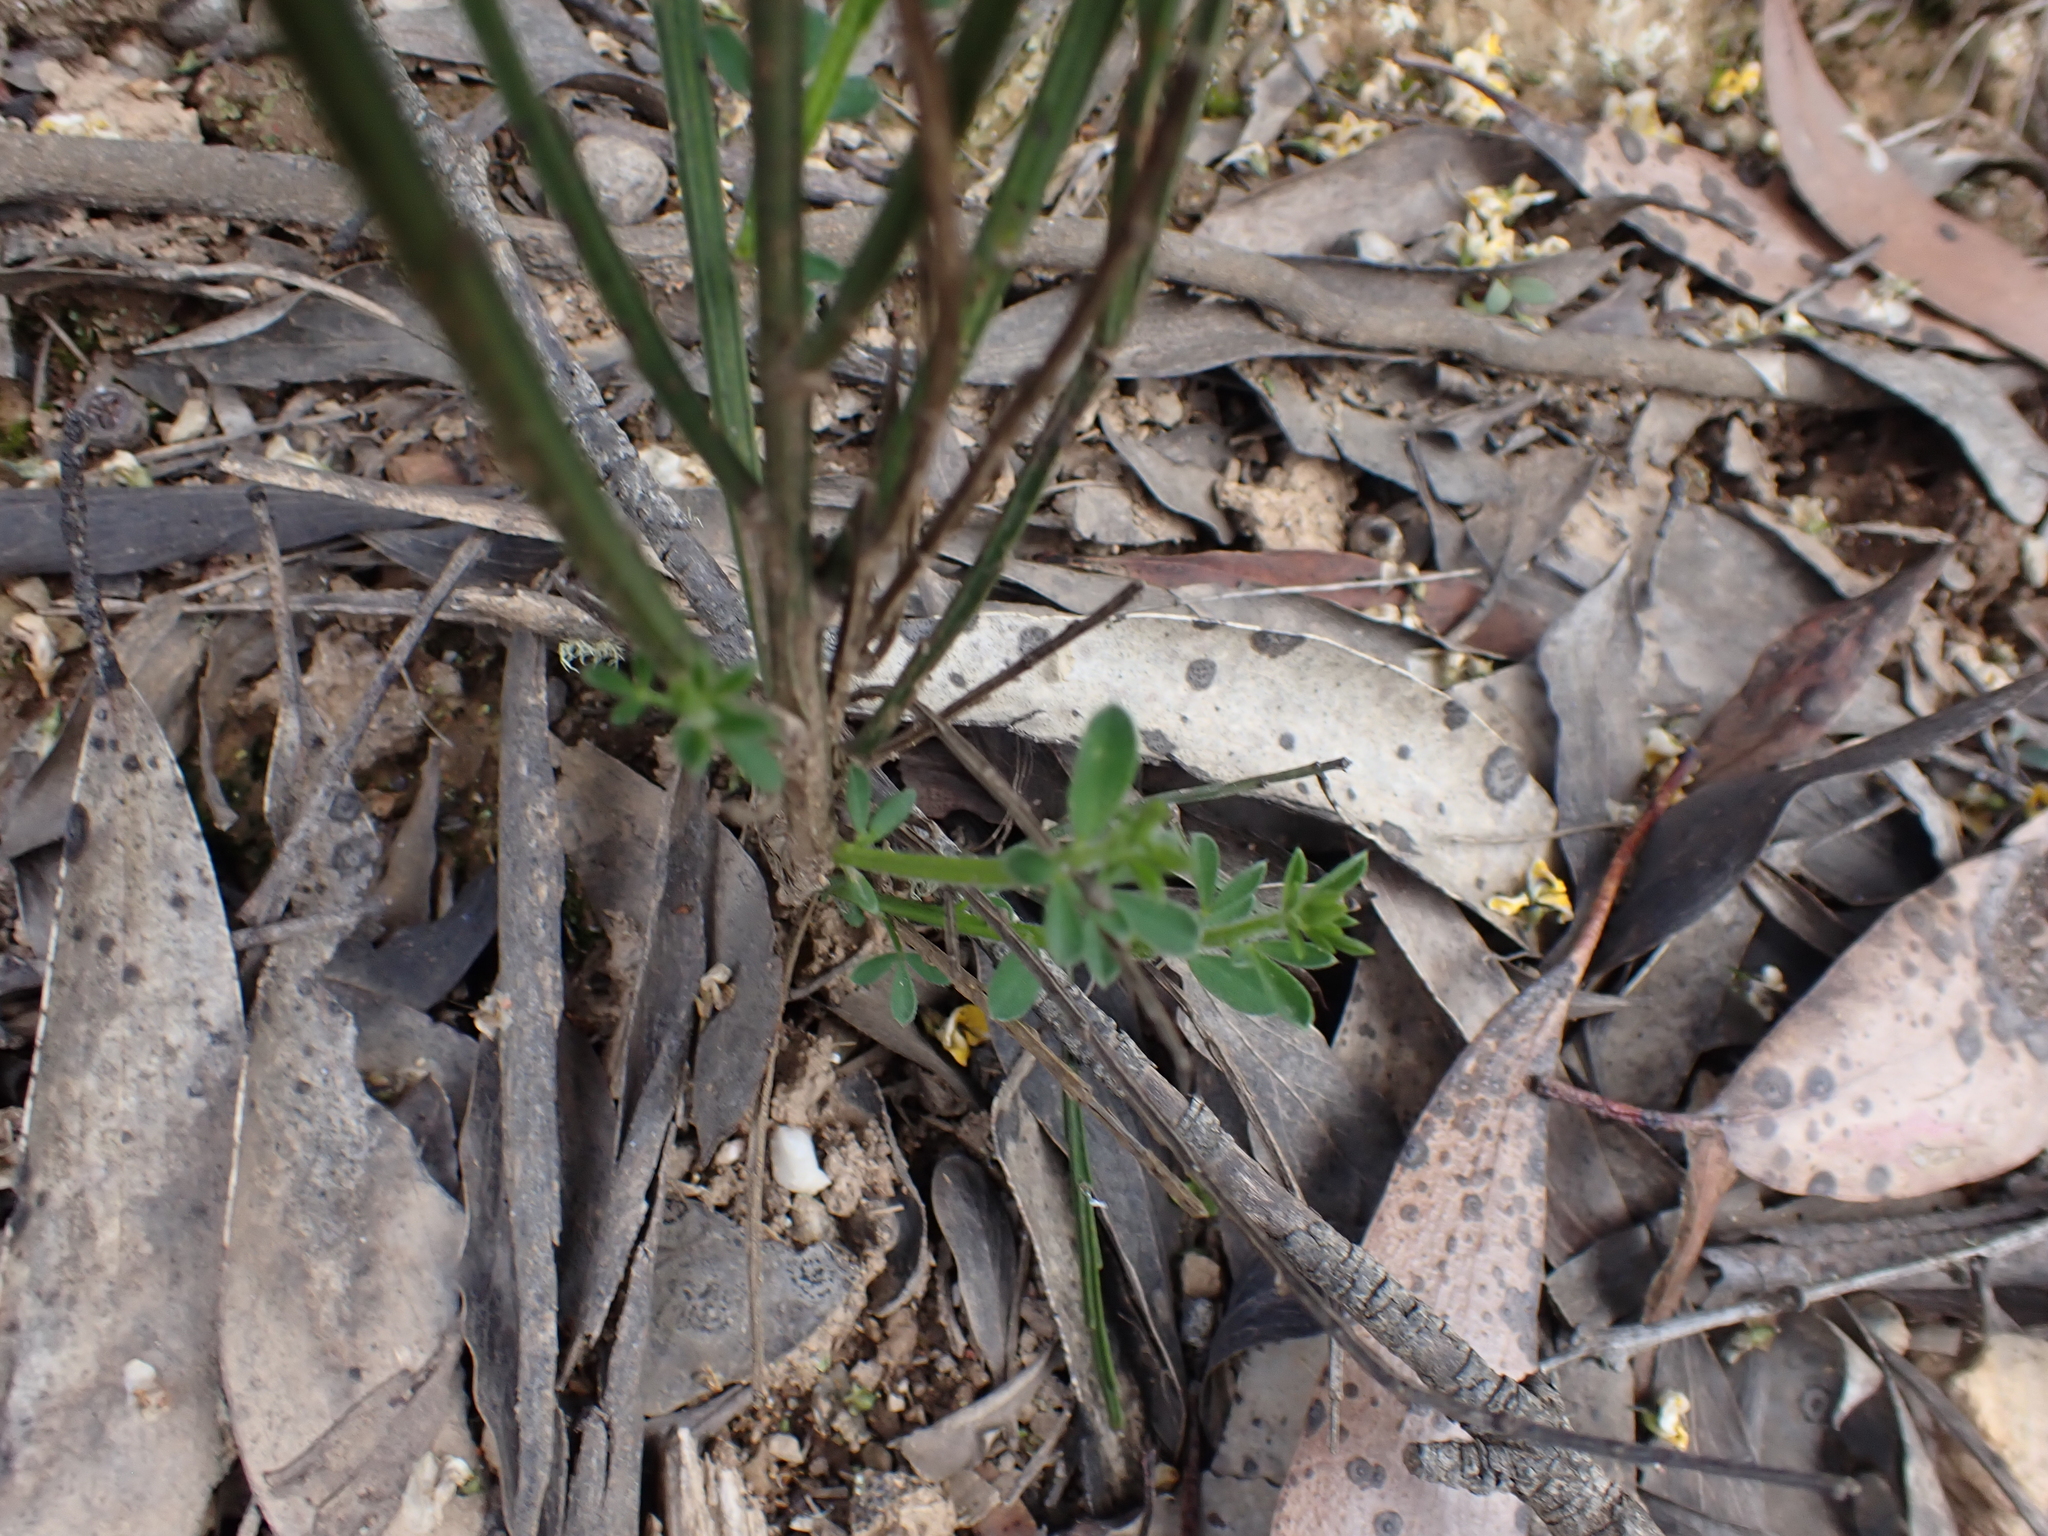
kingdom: Plantae
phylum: Tracheophyta
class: Magnoliopsida
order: Fabales
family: Fabaceae
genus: Cytisus
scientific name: Cytisus scoparius
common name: Scotch broom
